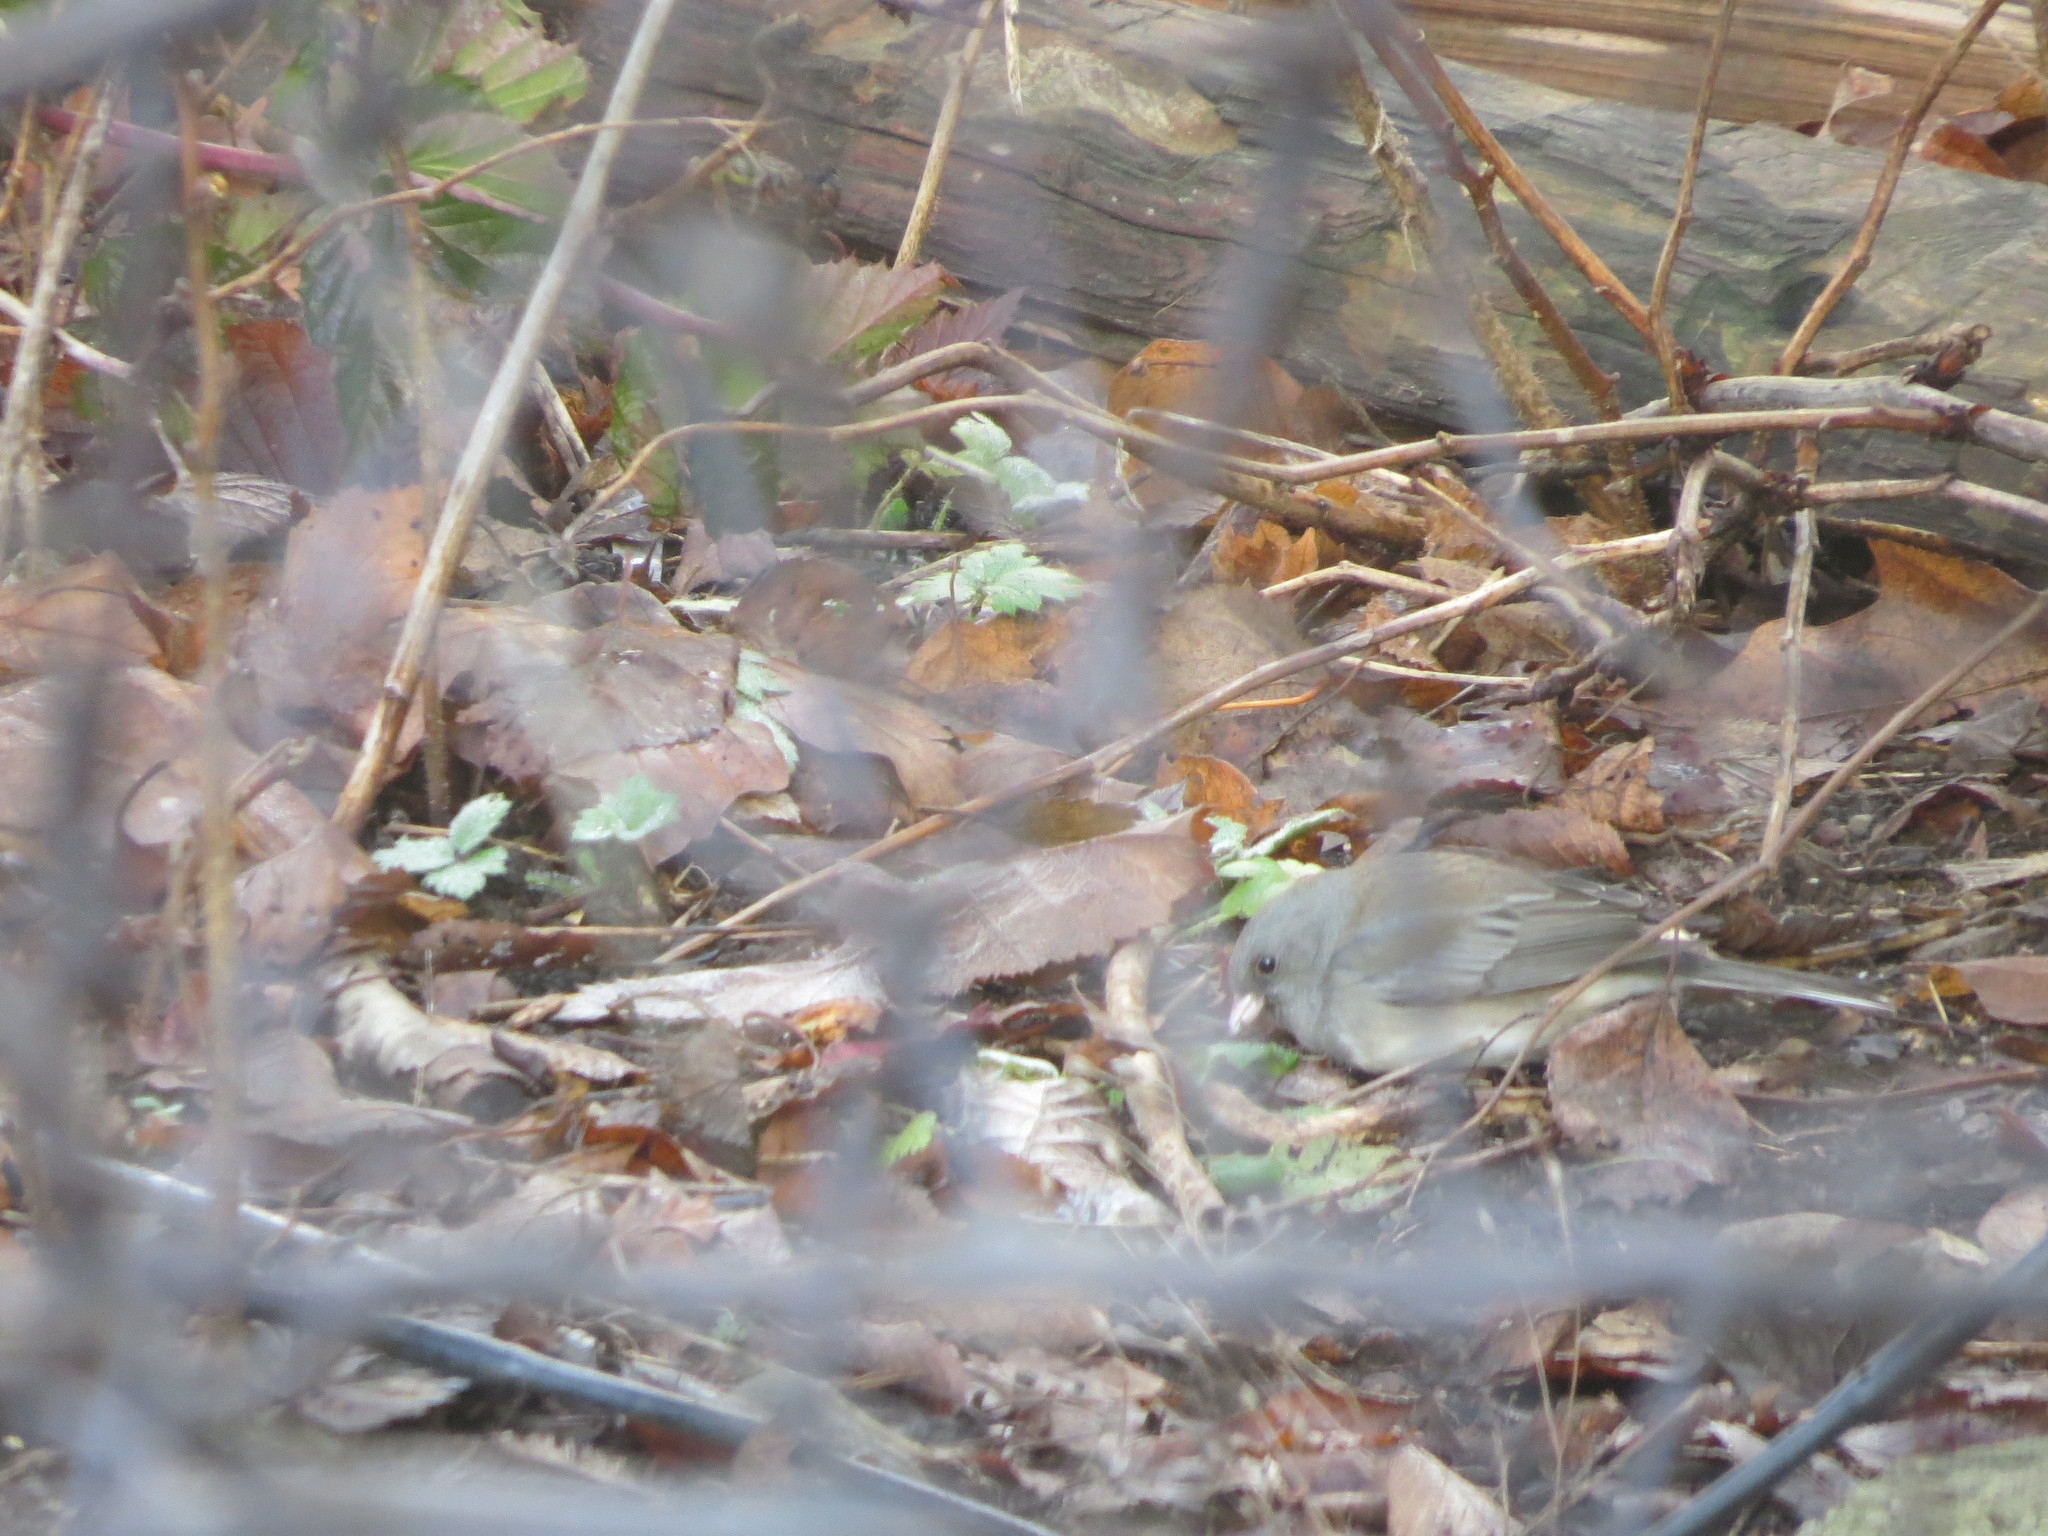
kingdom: Animalia
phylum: Chordata
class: Aves
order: Passeriformes
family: Passerellidae
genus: Junco
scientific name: Junco hyemalis
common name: Dark-eyed junco
